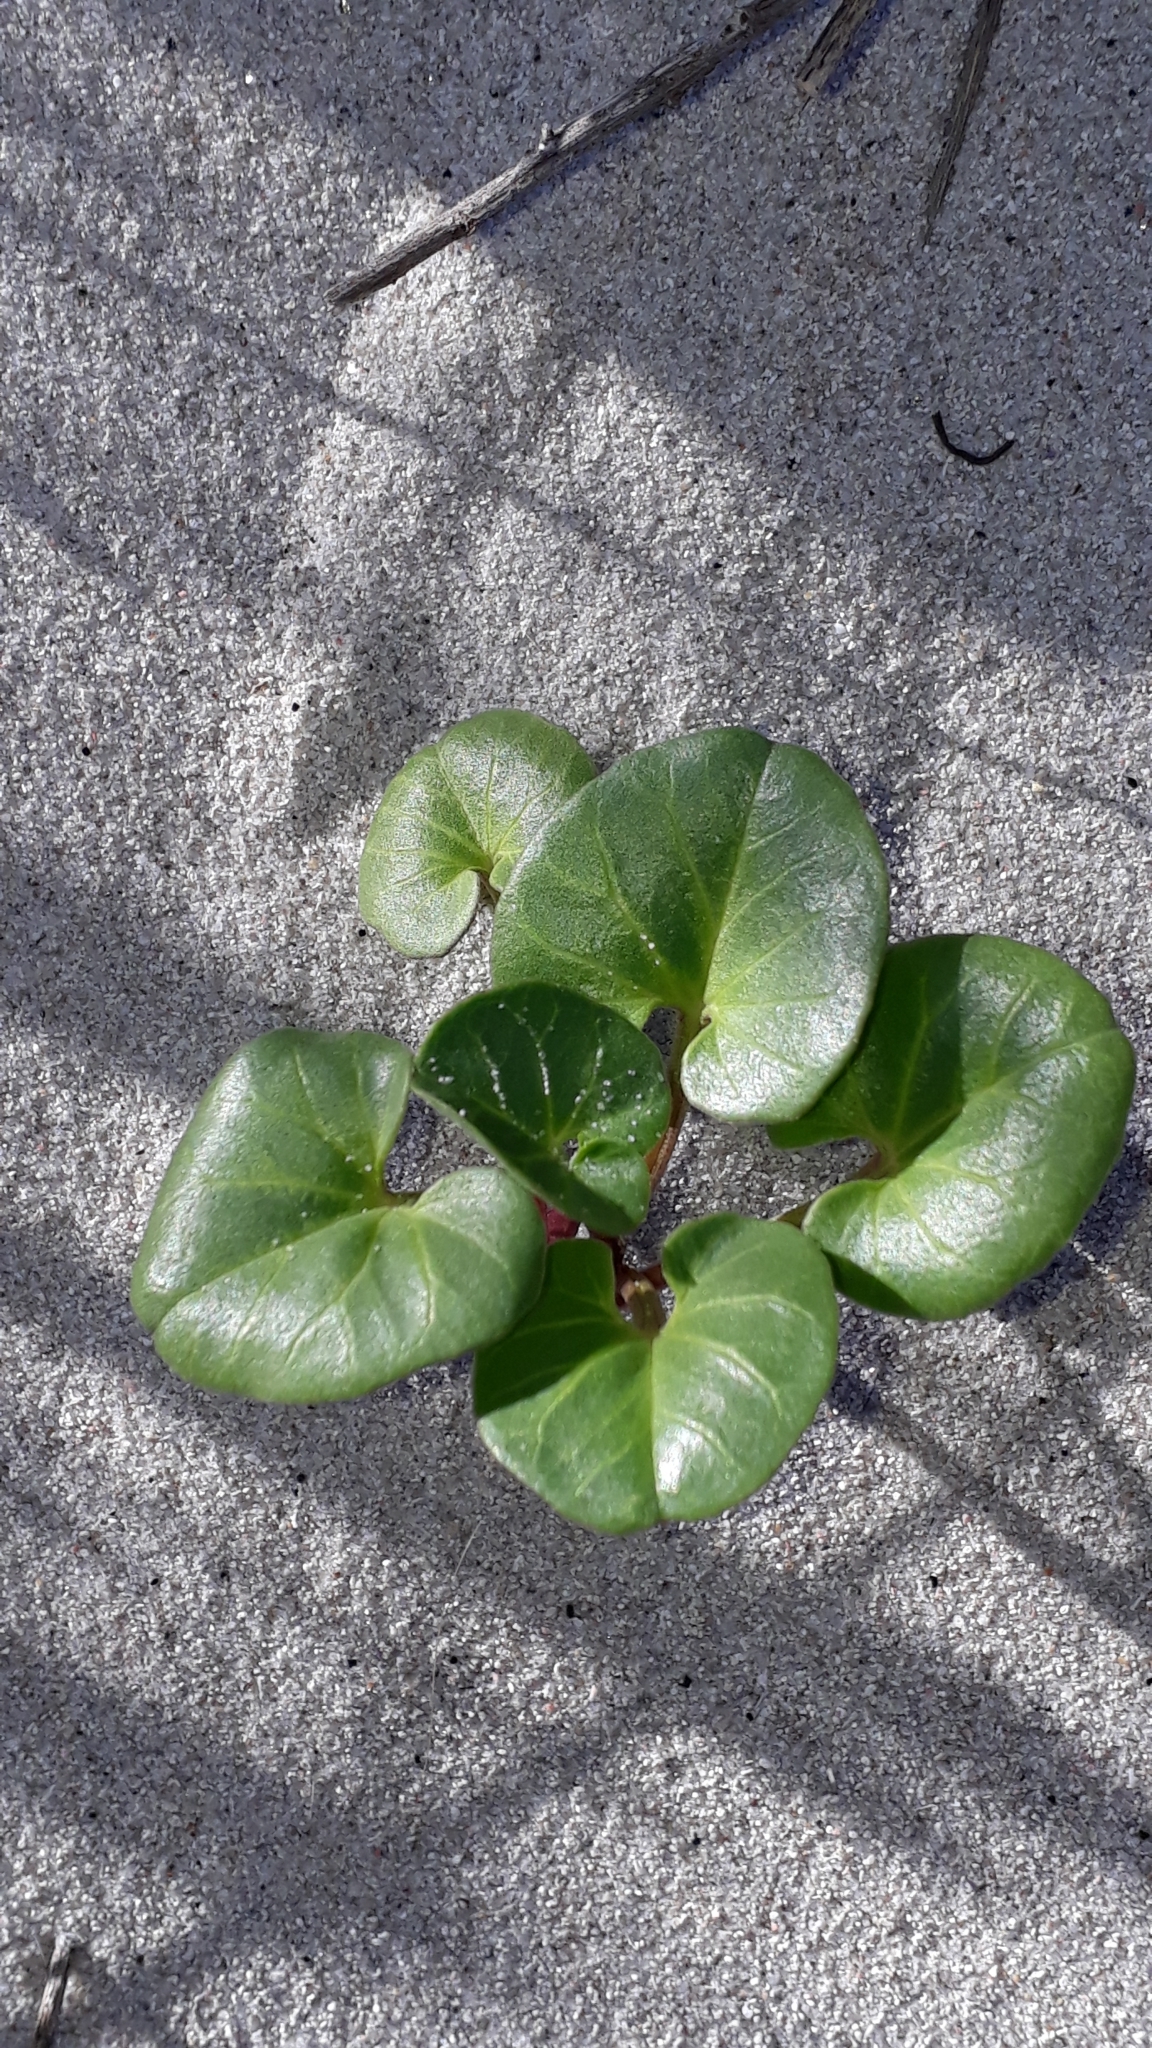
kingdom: Plantae
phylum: Tracheophyta
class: Magnoliopsida
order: Solanales
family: Convolvulaceae
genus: Calystegia
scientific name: Calystegia soldanella
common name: Sea bindweed
